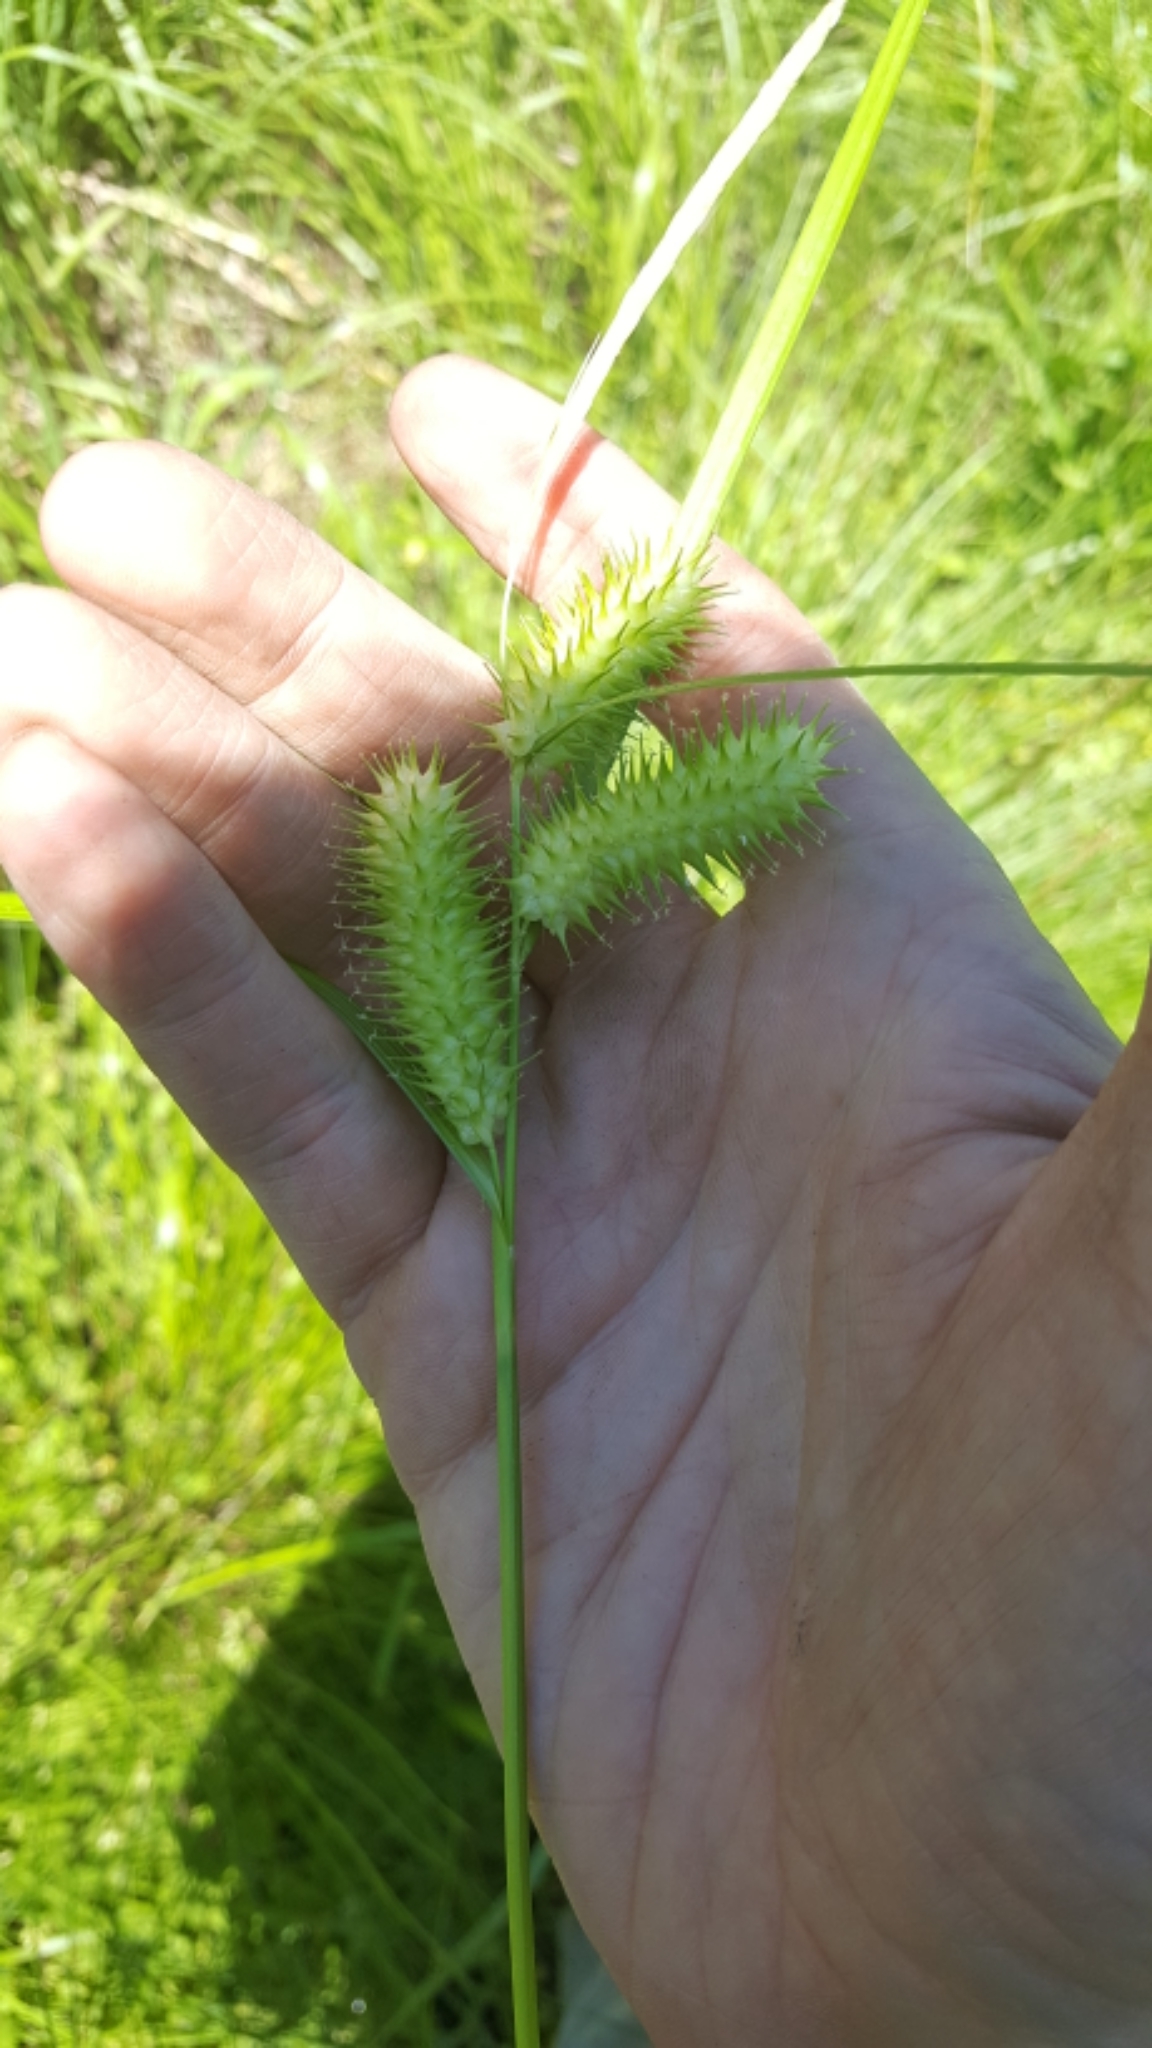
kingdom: Plantae
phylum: Tracheophyta
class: Liliopsida
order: Poales
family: Cyperaceae
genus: Carex
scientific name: Carex lurida
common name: Sallow sedge
